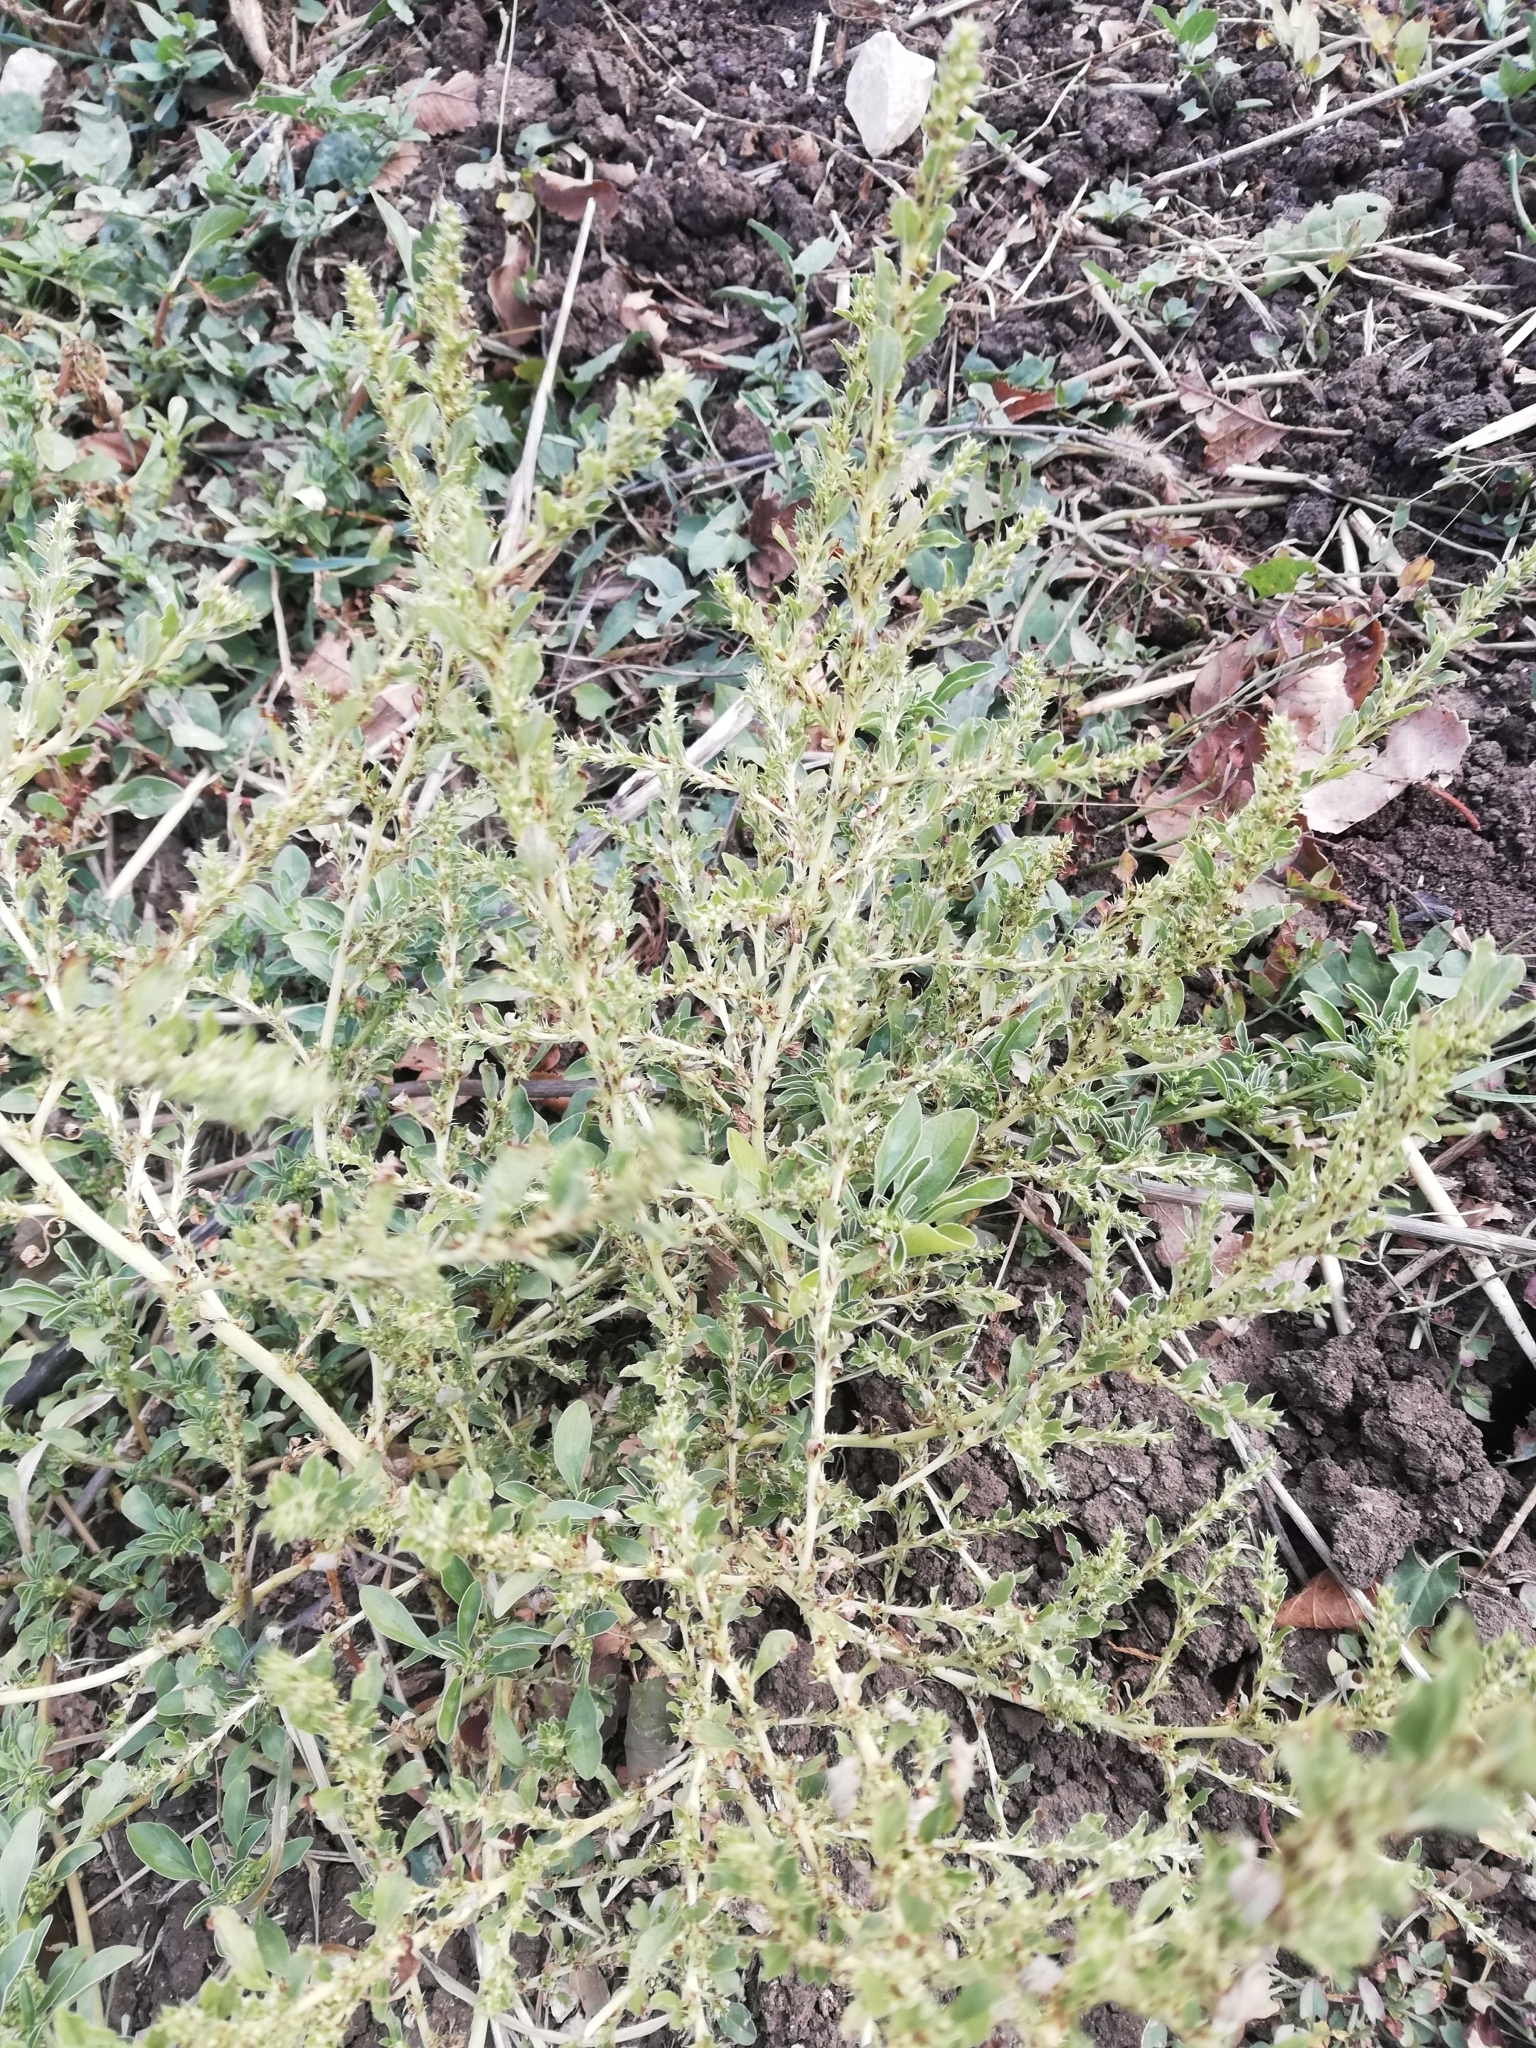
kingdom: Plantae
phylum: Tracheophyta
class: Magnoliopsida
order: Caryophyllales
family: Amaranthaceae
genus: Amaranthus
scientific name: Amaranthus albus
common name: White pigweed
